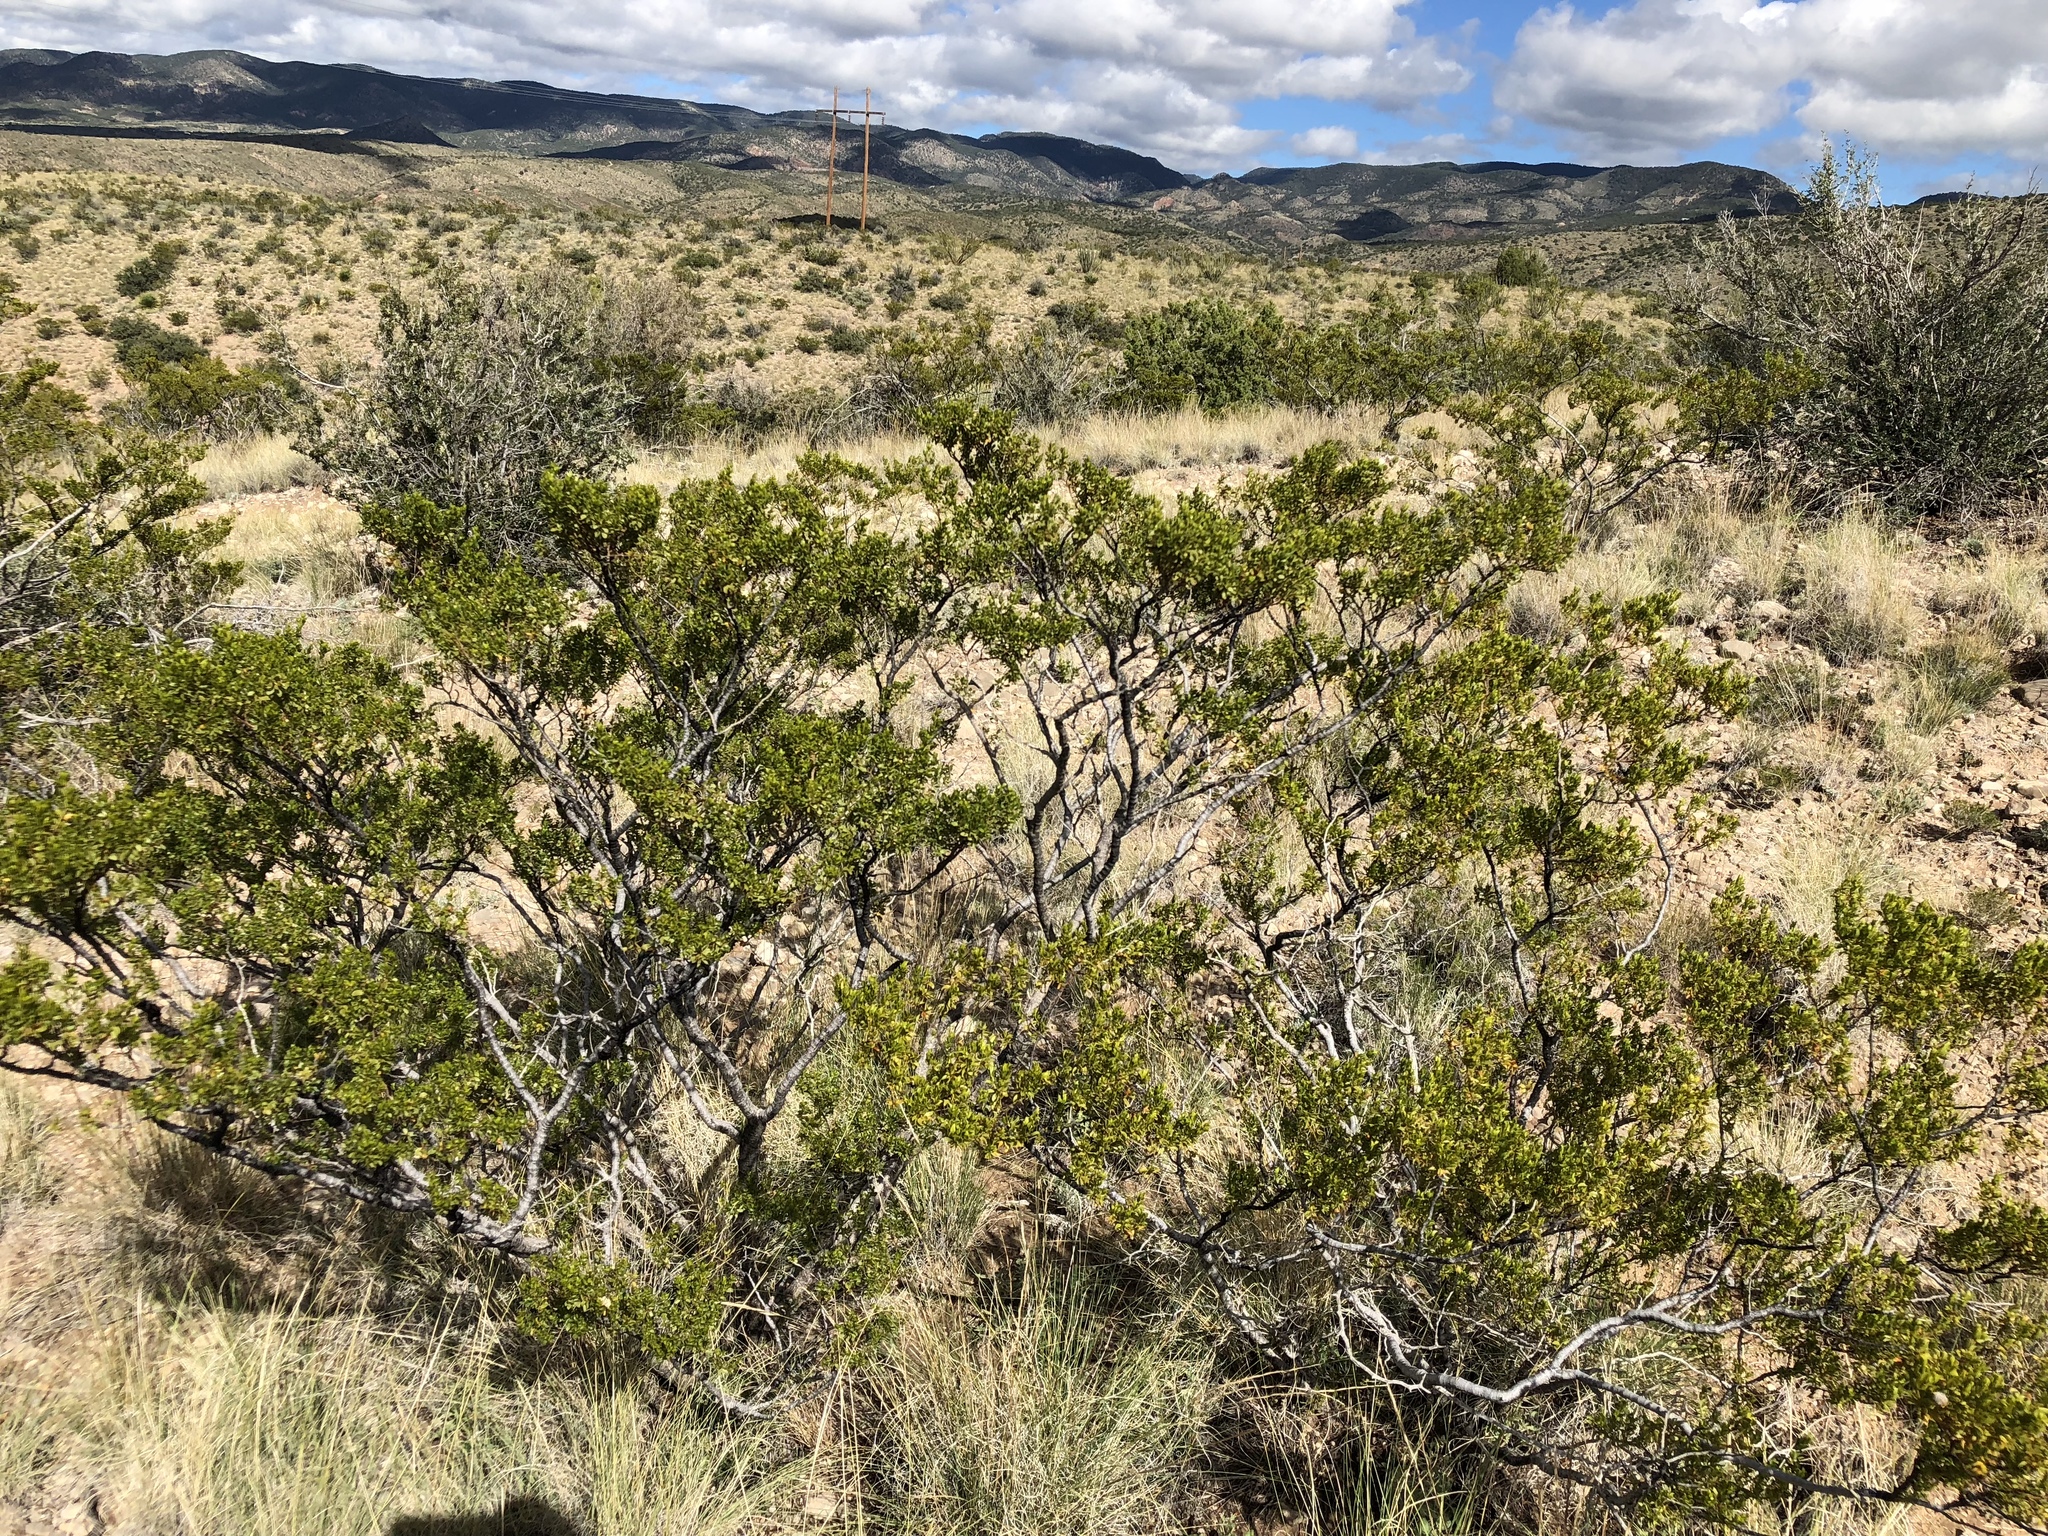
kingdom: Plantae
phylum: Tracheophyta
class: Magnoliopsida
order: Zygophyllales
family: Zygophyllaceae
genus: Larrea
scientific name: Larrea tridentata
